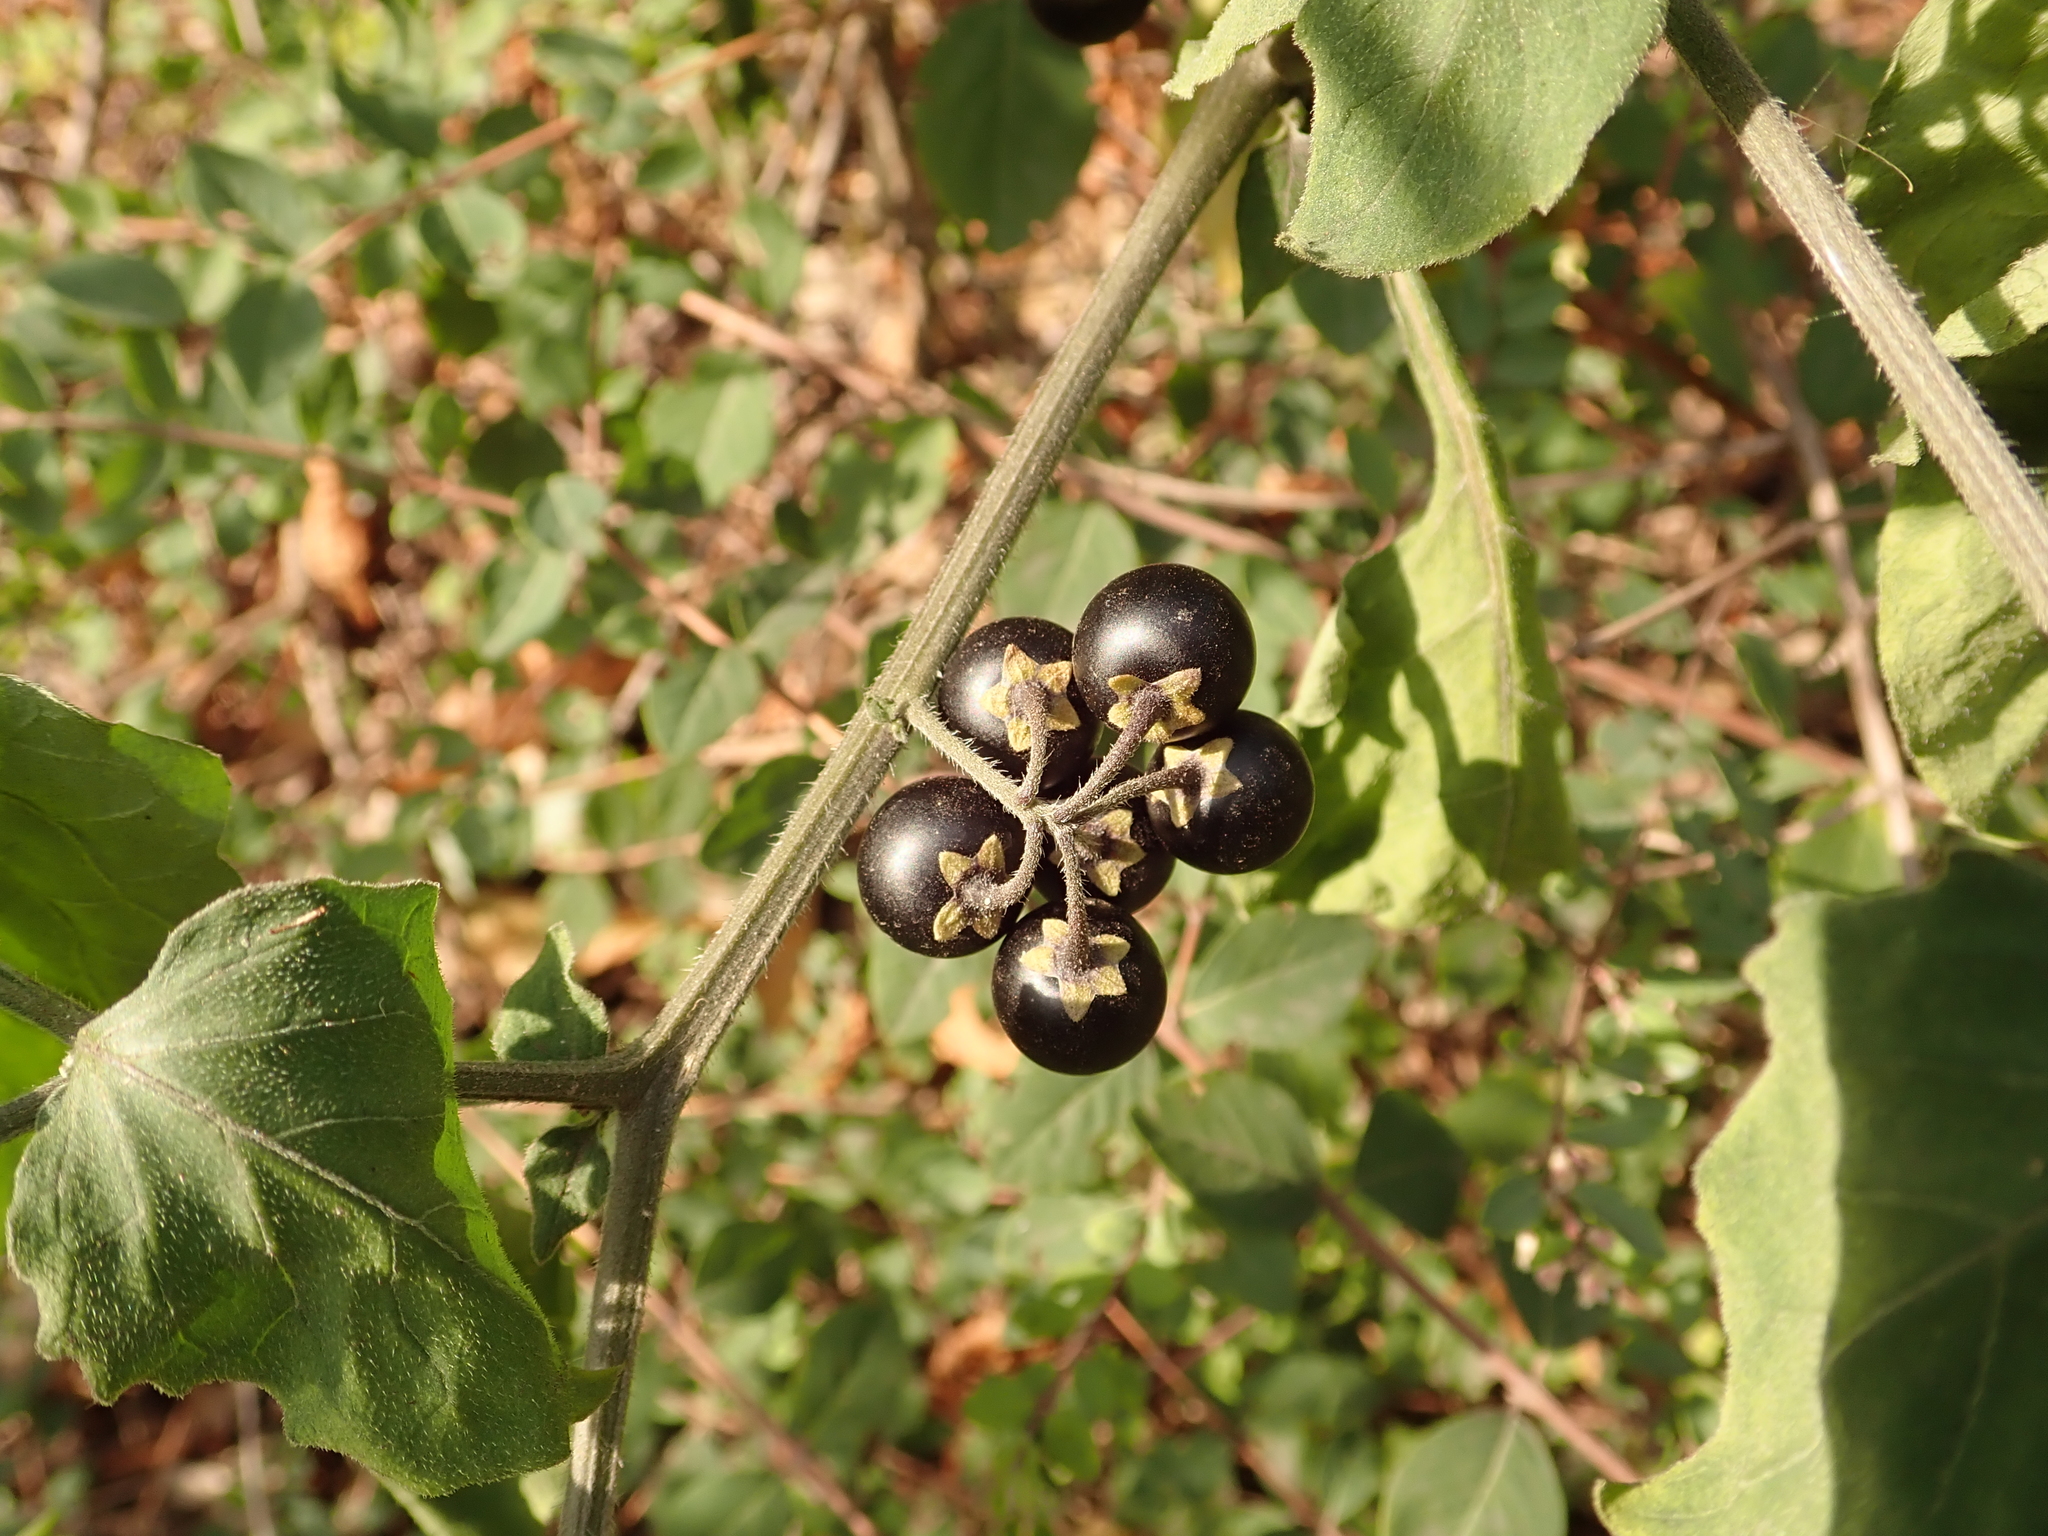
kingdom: Plantae
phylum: Tracheophyta
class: Magnoliopsida
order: Solanales
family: Solanaceae
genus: Solanum
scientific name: Solanum nigrum
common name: Black nightshade
